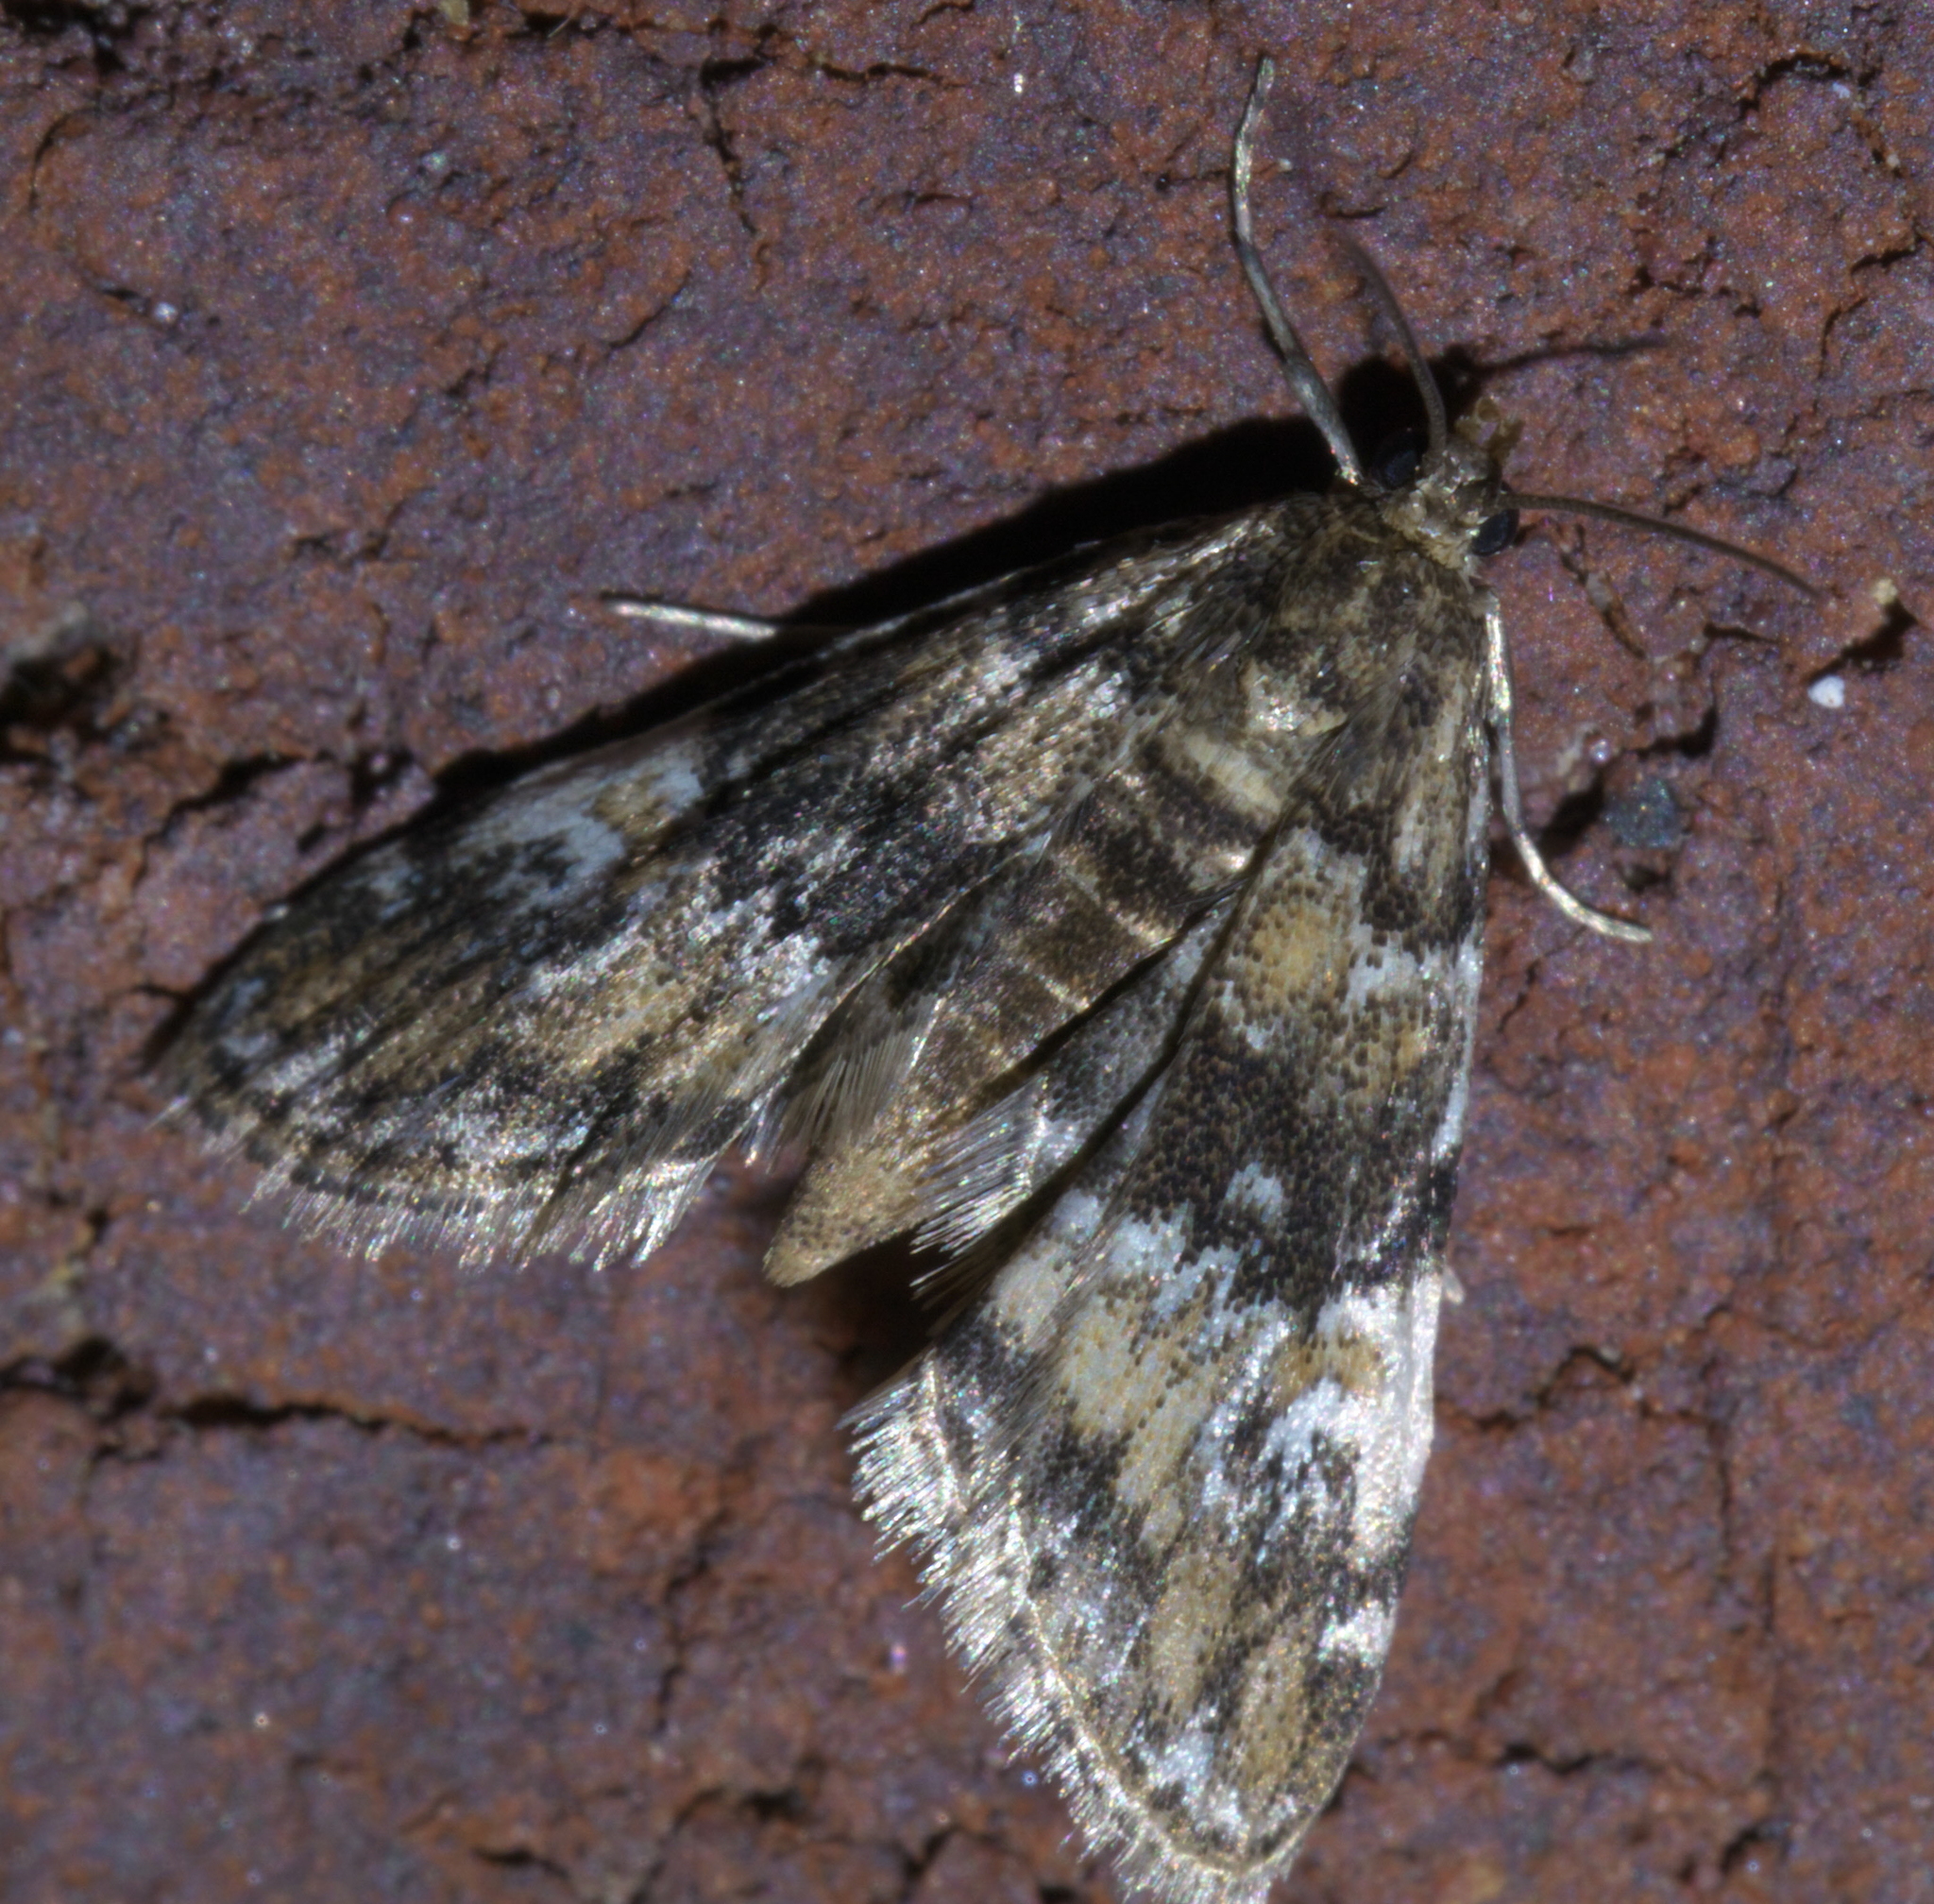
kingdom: Animalia
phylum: Arthropoda
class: Insecta
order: Lepidoptera
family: Crambidae
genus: Elophila
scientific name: Elophila obliteralis
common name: Waterlily leafcutter moth
